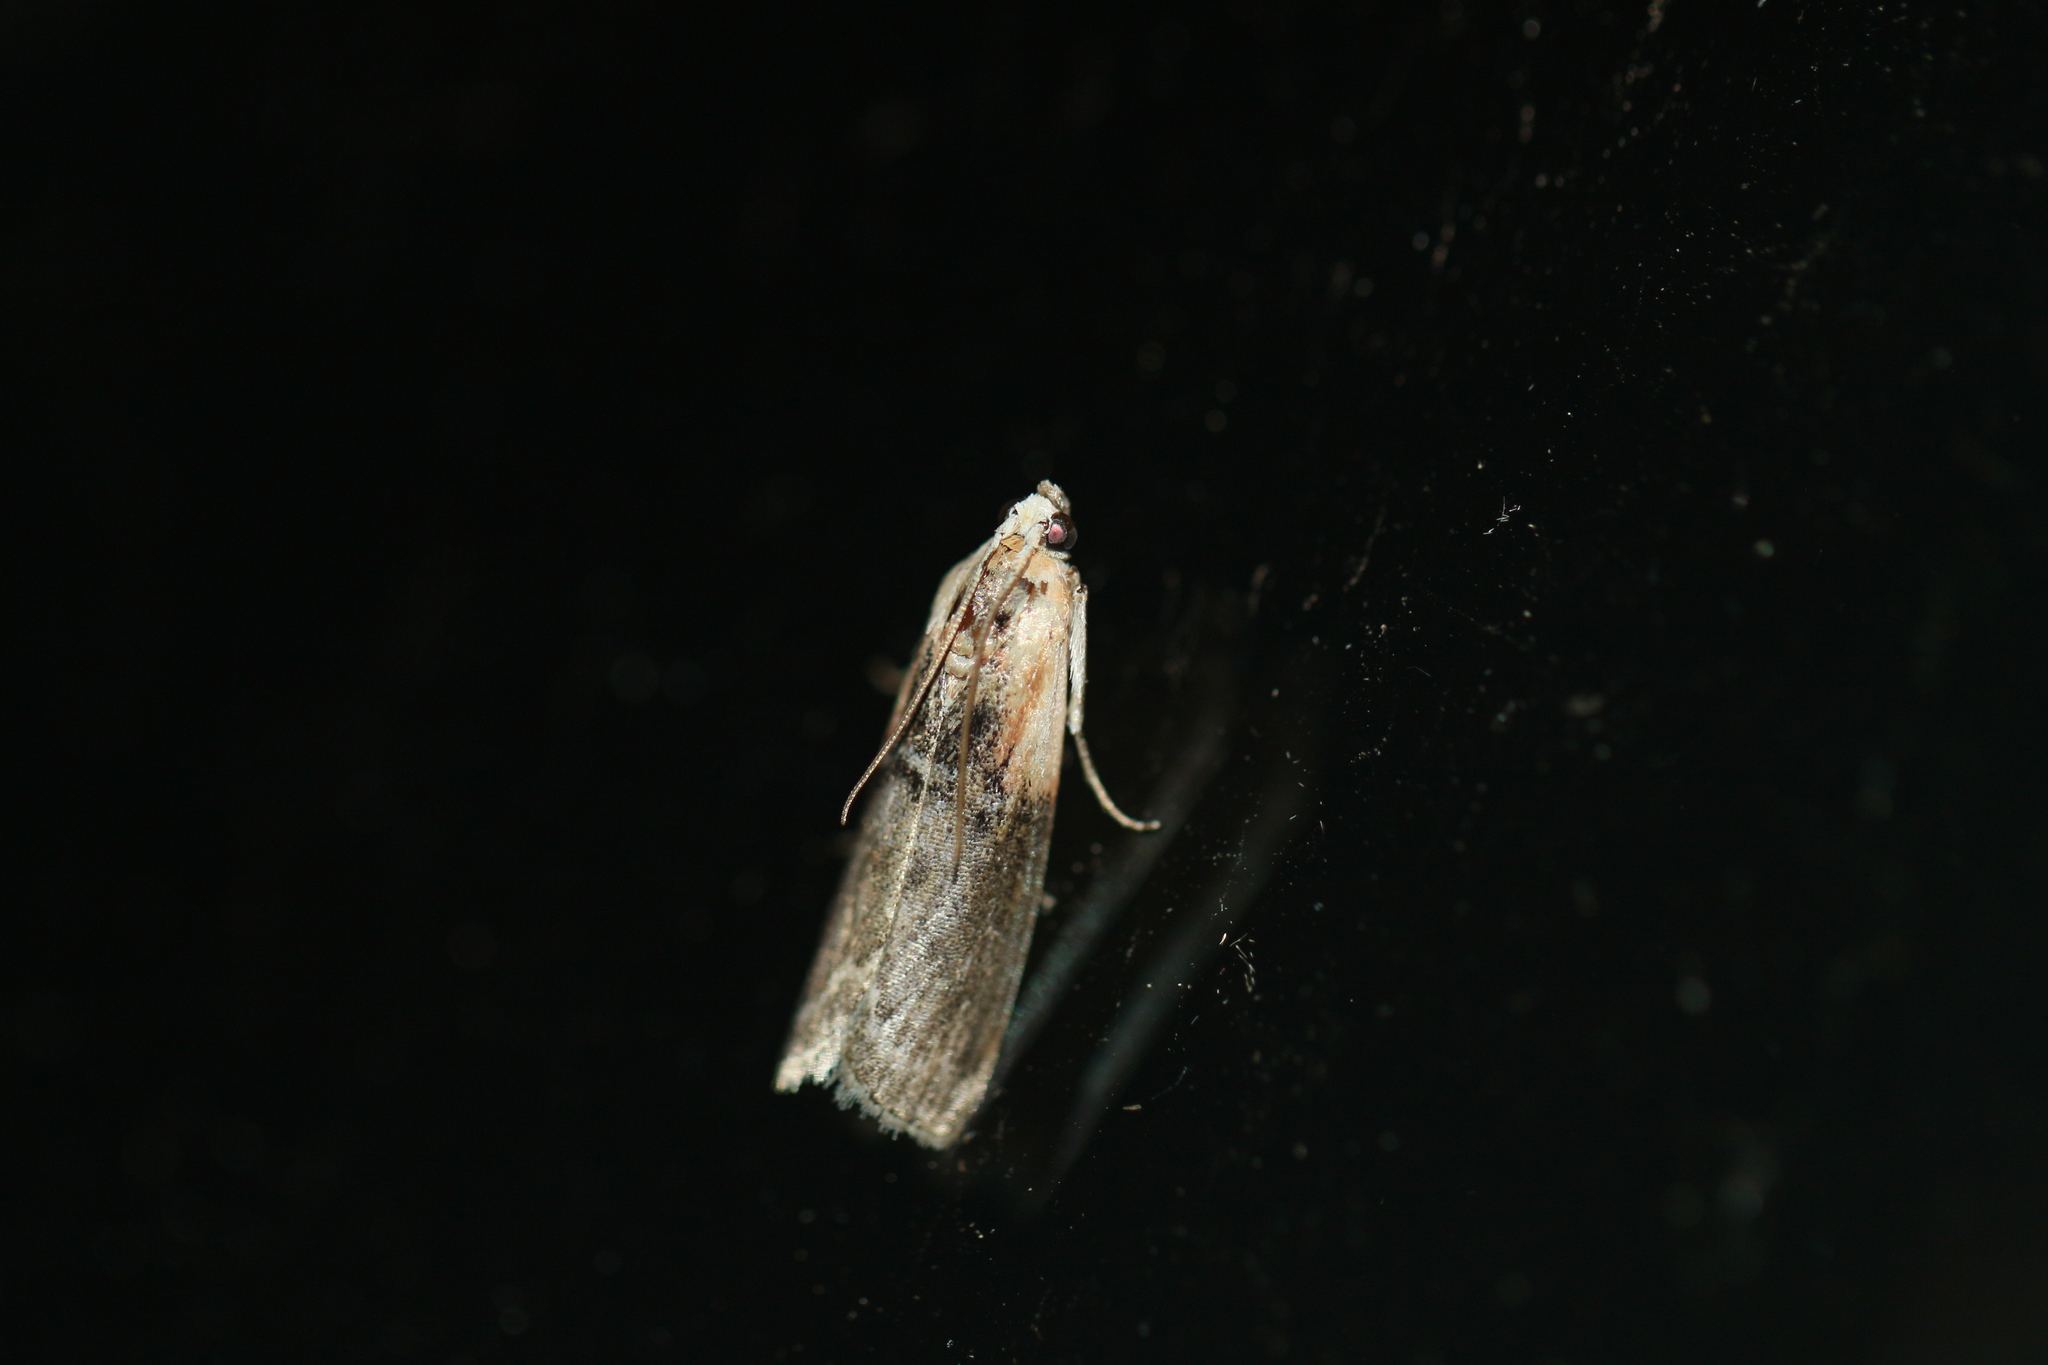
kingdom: Animalia
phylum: Arthropoda
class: Insecta
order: Lepidoptera
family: Pyralidae
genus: Sciota
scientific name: Sciota basilaris
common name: Yellow-shouldered leafroller
